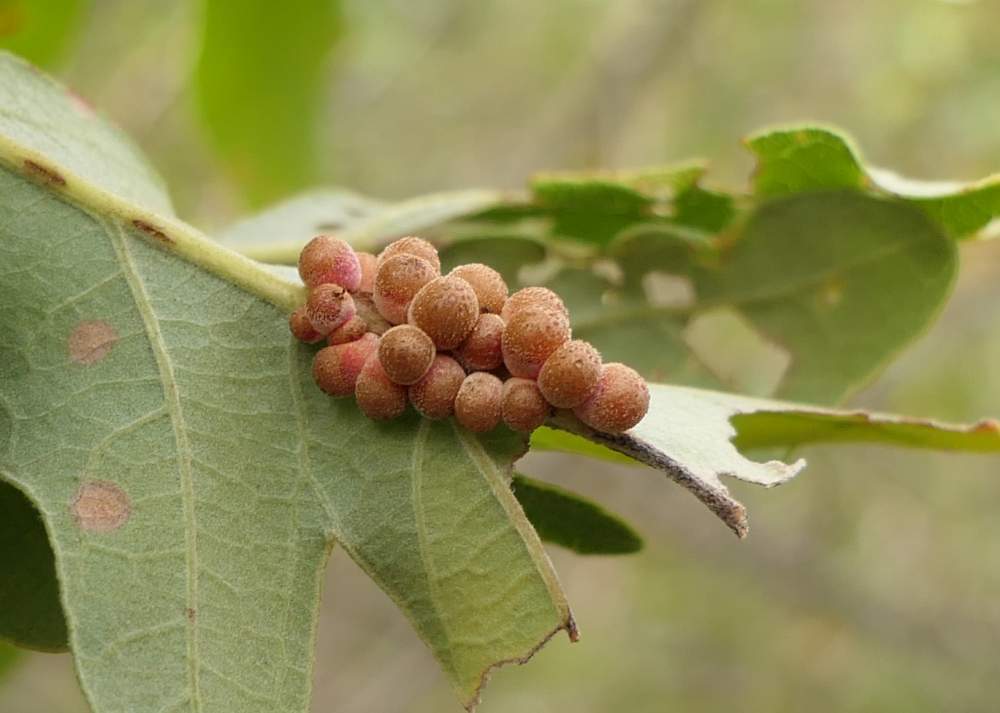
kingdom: Animalia
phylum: Arthropoda
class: Insecta
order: Hymenoptera
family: Cynipidae
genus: Andricus
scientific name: Andricus
